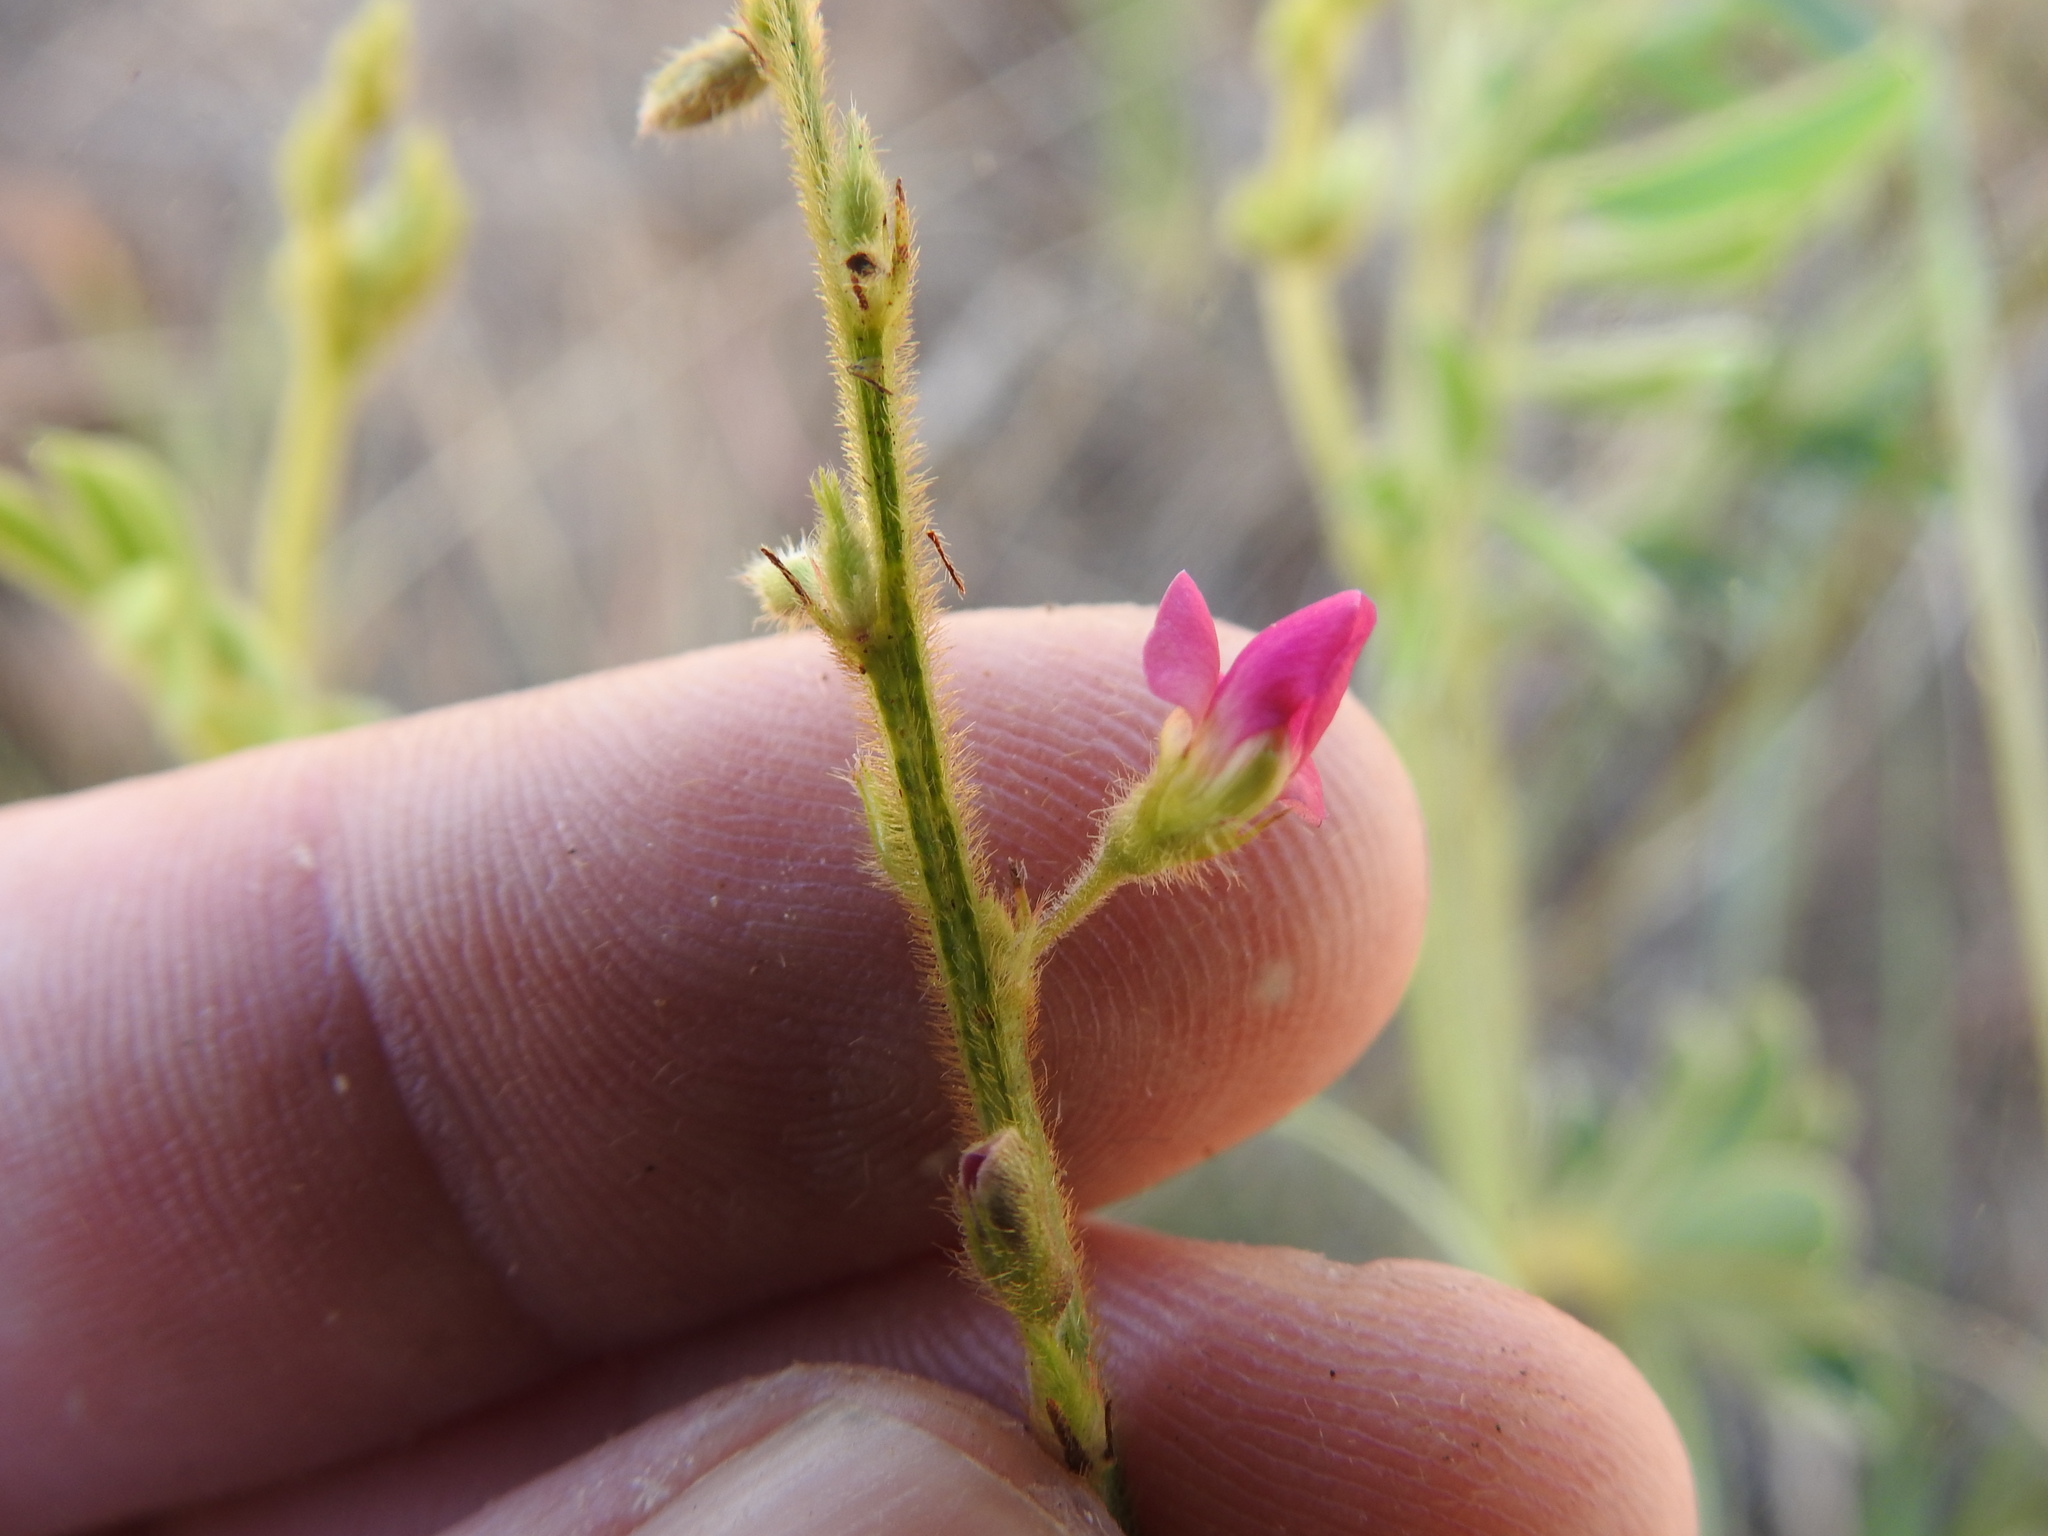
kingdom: Plantae
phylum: Tracheophyta
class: Magnoliopsida
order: Fabales
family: Fabaceae
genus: Tephrosia
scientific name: Tephrosia capensis
